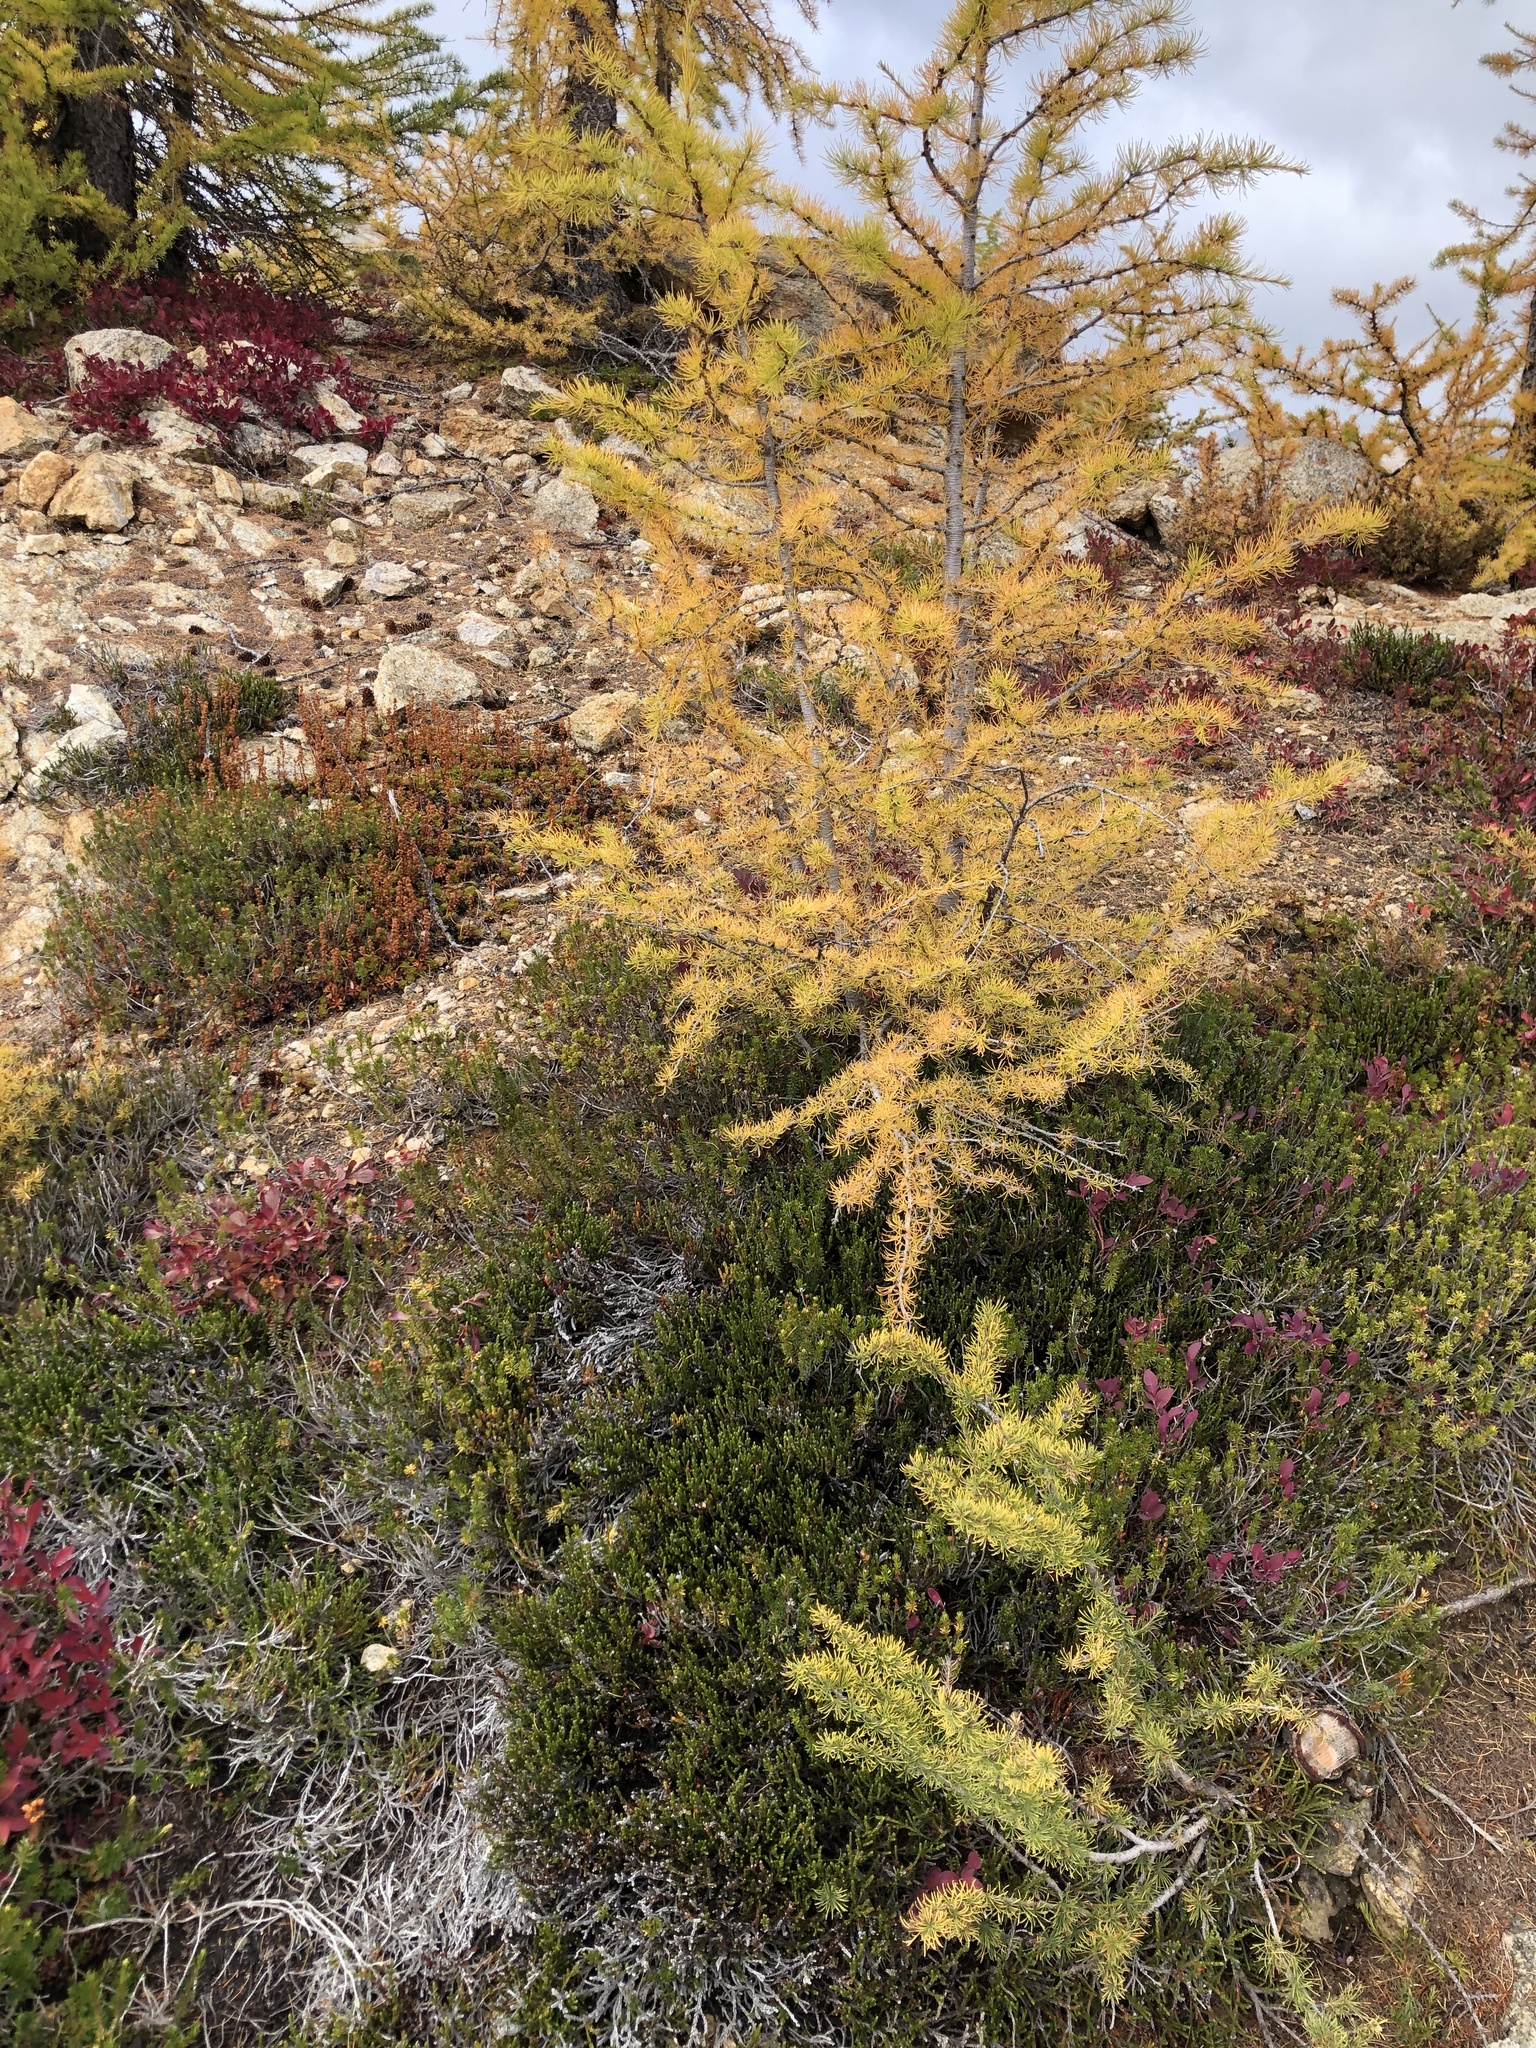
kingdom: Plantae
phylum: Tracheophyta
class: Pinopsida
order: Pinales
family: Pinaceae
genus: Larix
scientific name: Larix lyallii
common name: Alpine larch
